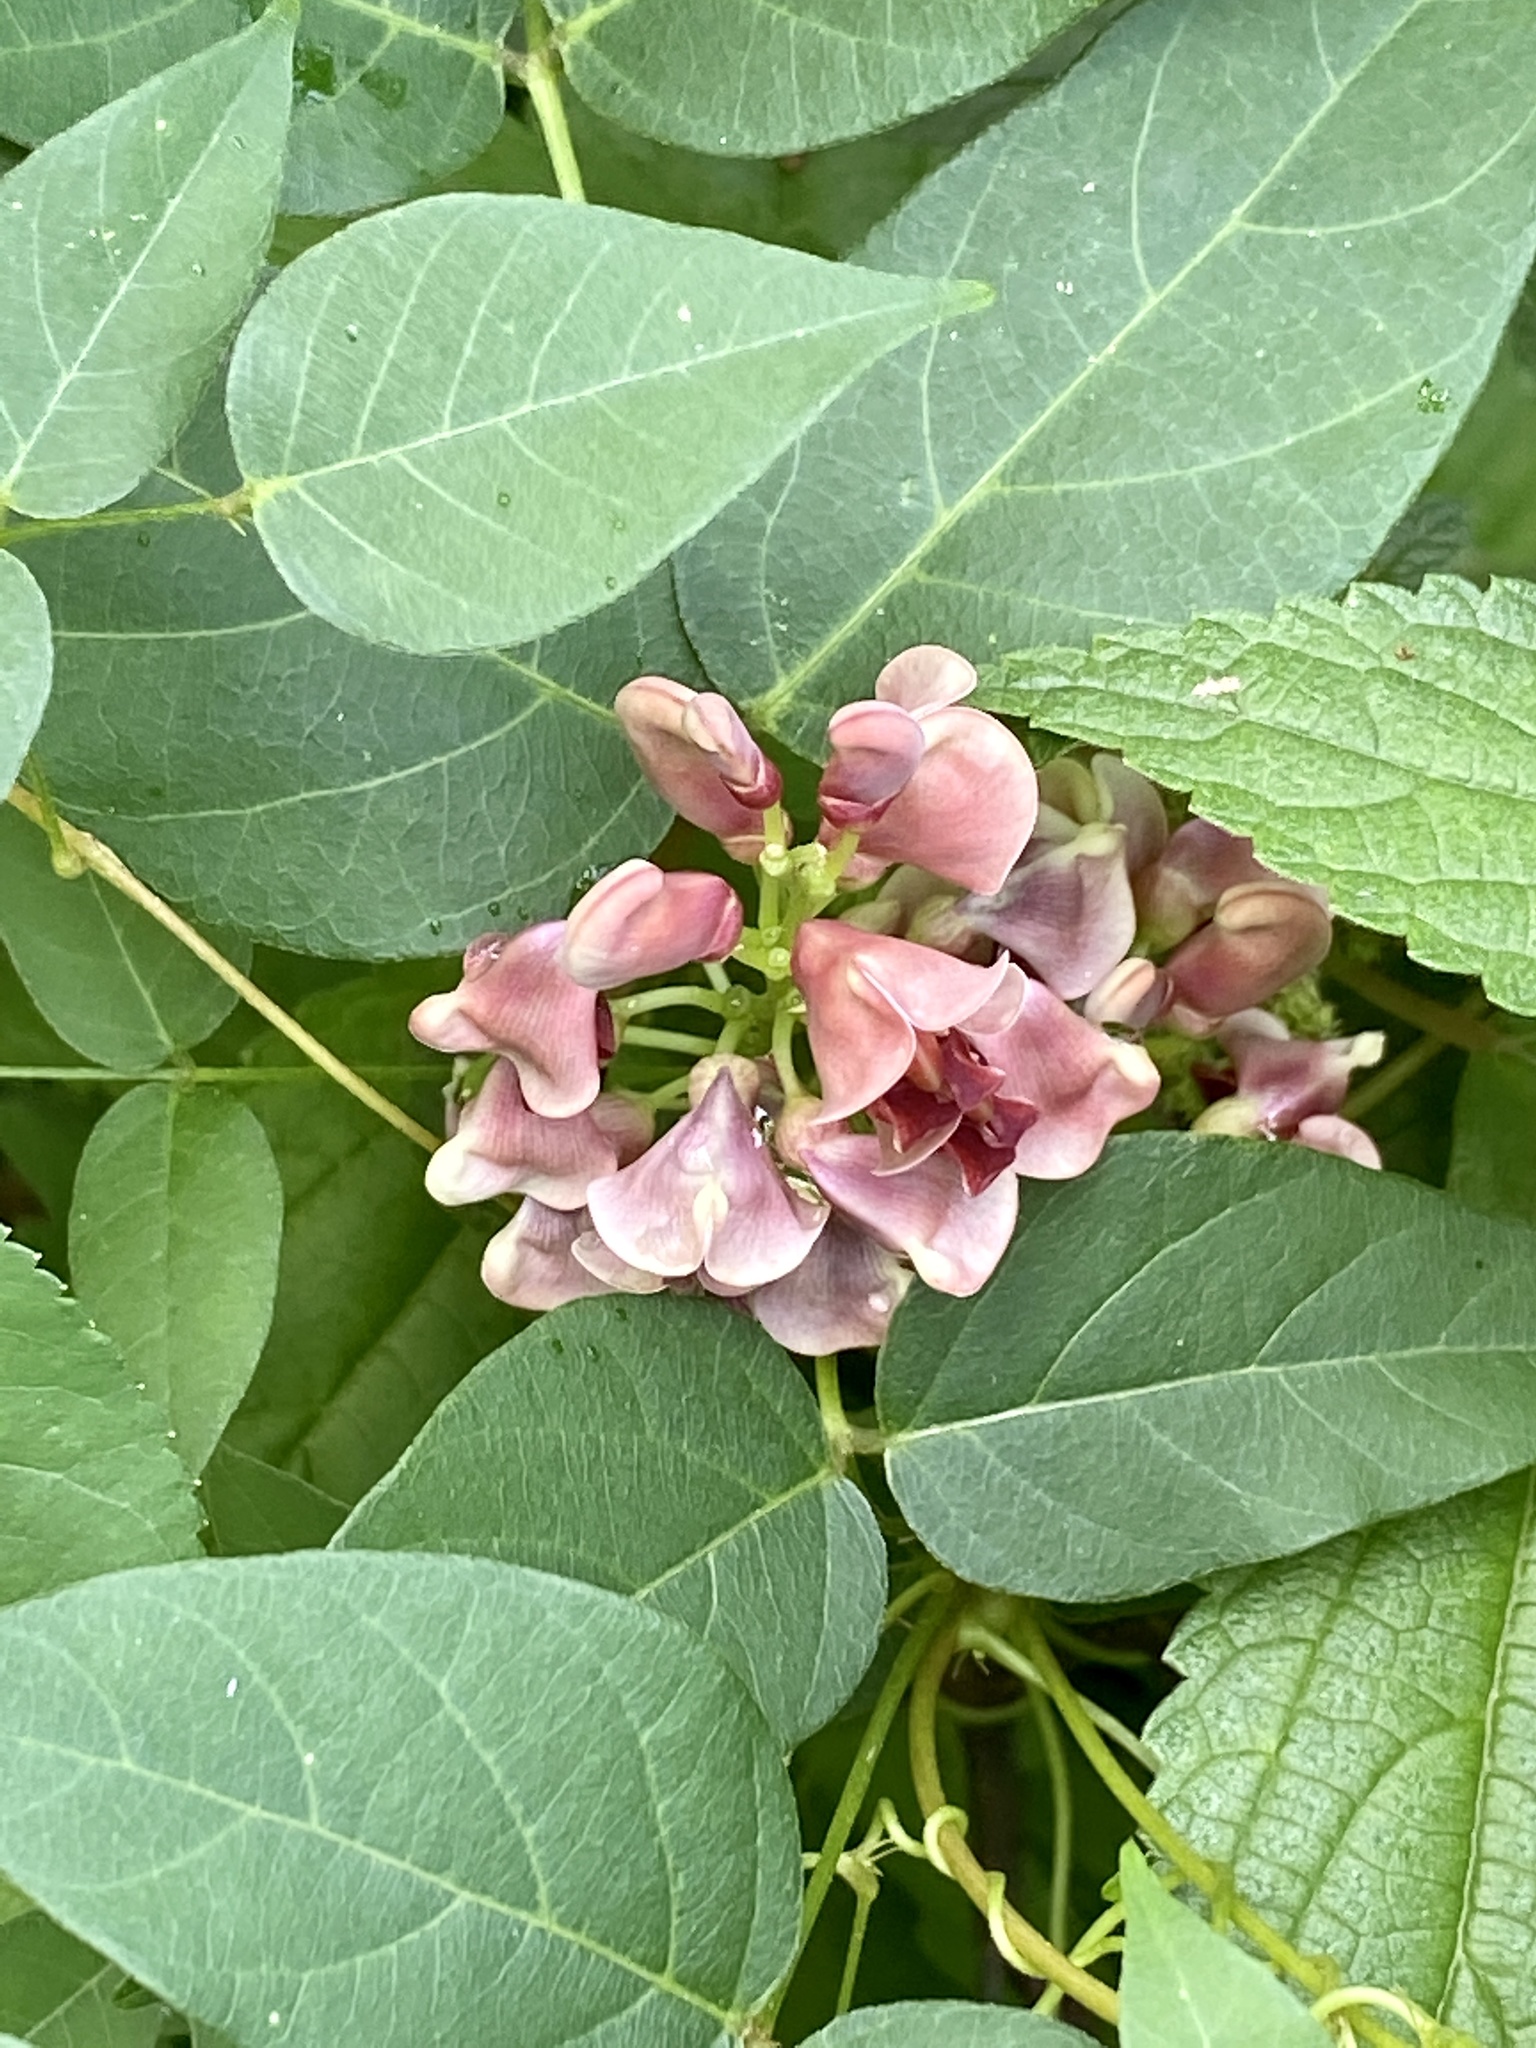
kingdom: Plantae
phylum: Tracheophyta
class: Magnoliopsida
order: Fabales
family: Fabaceae
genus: Apios
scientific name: Apios americana
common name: American potato-bean
